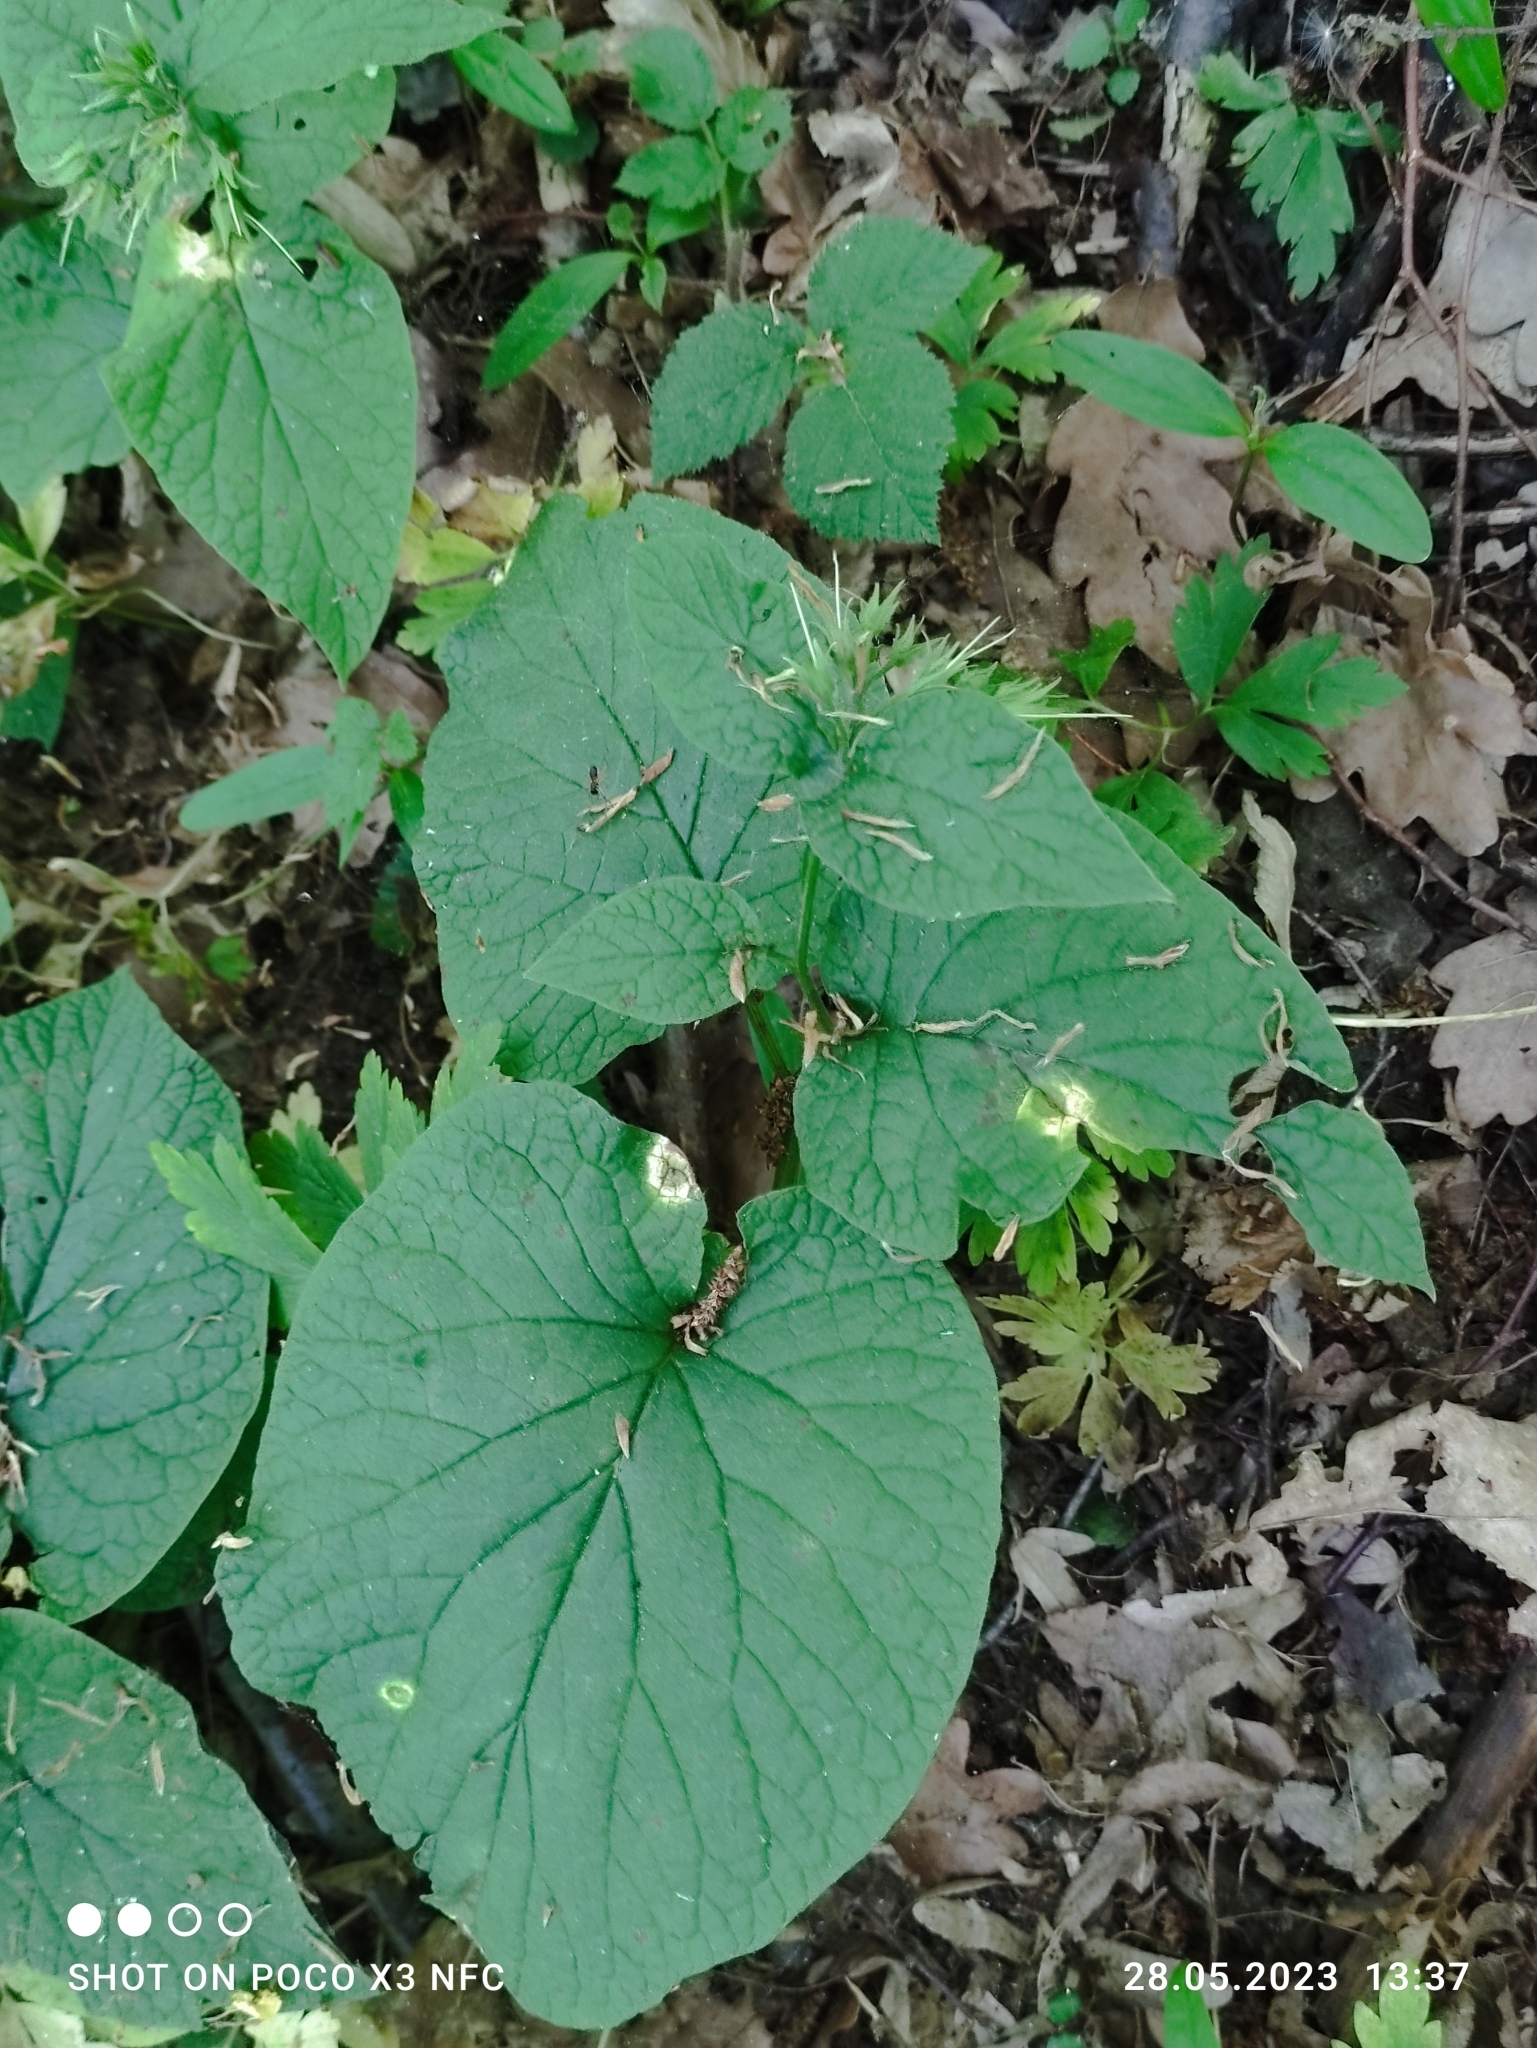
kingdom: Plantae
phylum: Tracheophyta
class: Magnoliopsida
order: Boraginales
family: Boraginaceae
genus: Symphytum
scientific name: Symphytum cordatum
